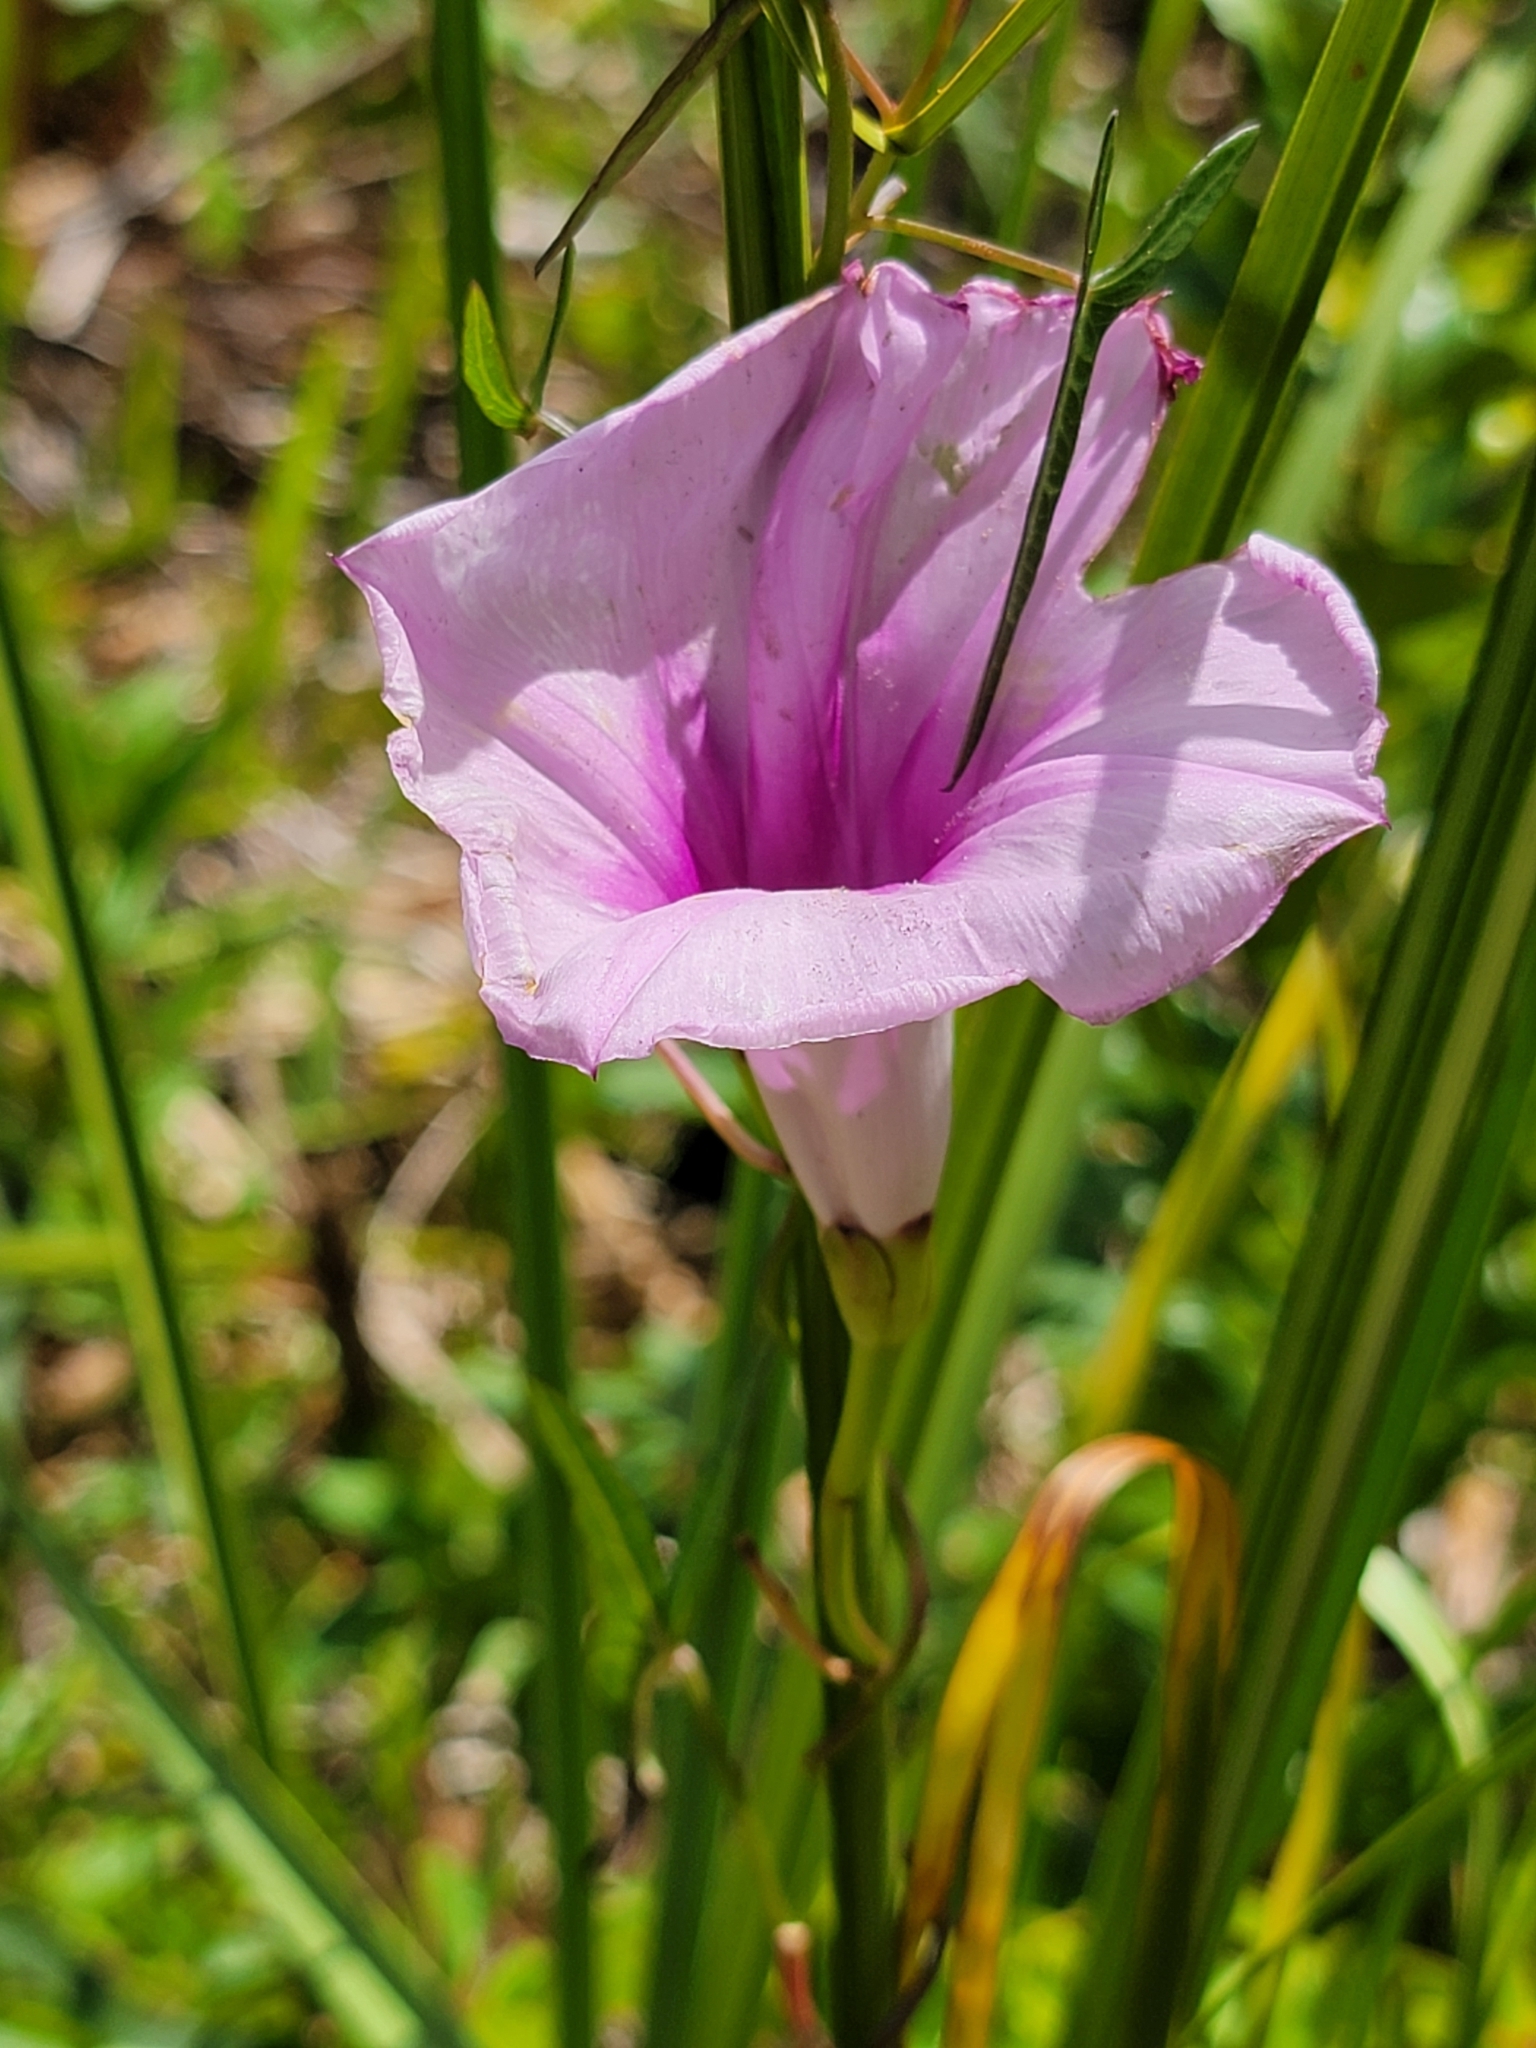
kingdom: Plantae
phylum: Tracheophyta
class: Magnoliopsida
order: Solanales
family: Convolvulaceae
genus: Ipomoea
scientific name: Ipomoea sagittata
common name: Saltmarsh morning glory
